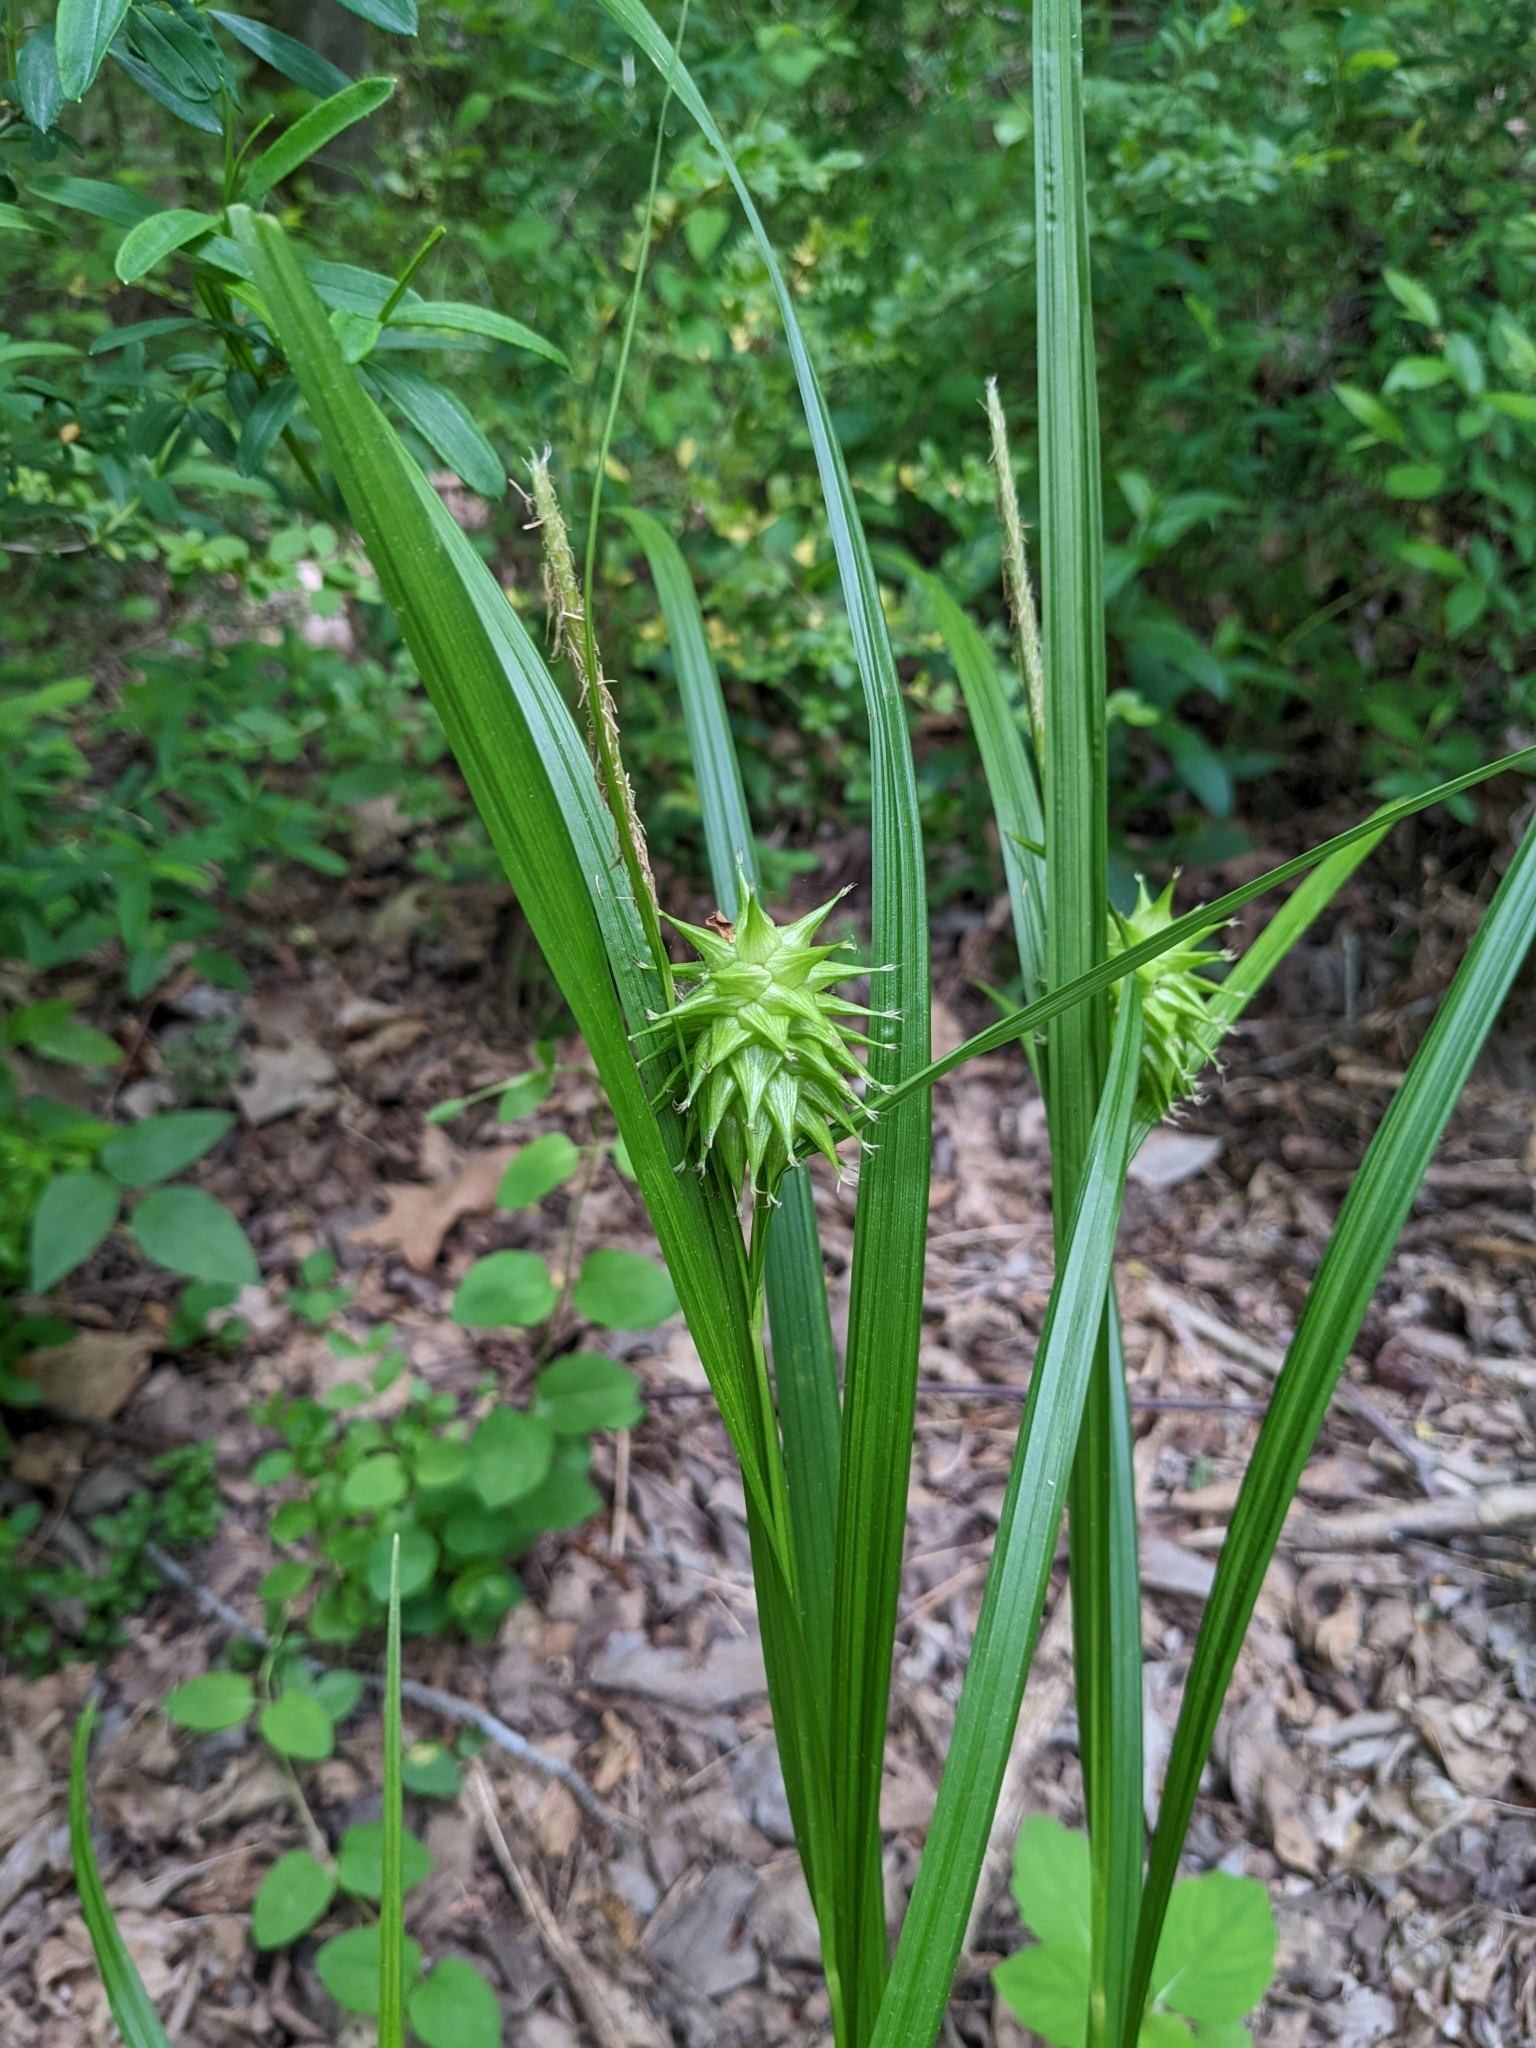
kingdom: Plantae
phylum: Tracheophyta
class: Liliopsida
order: Poales
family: Cyperaceae
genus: Carex
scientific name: Carex grayi
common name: Asa gray's sedge
